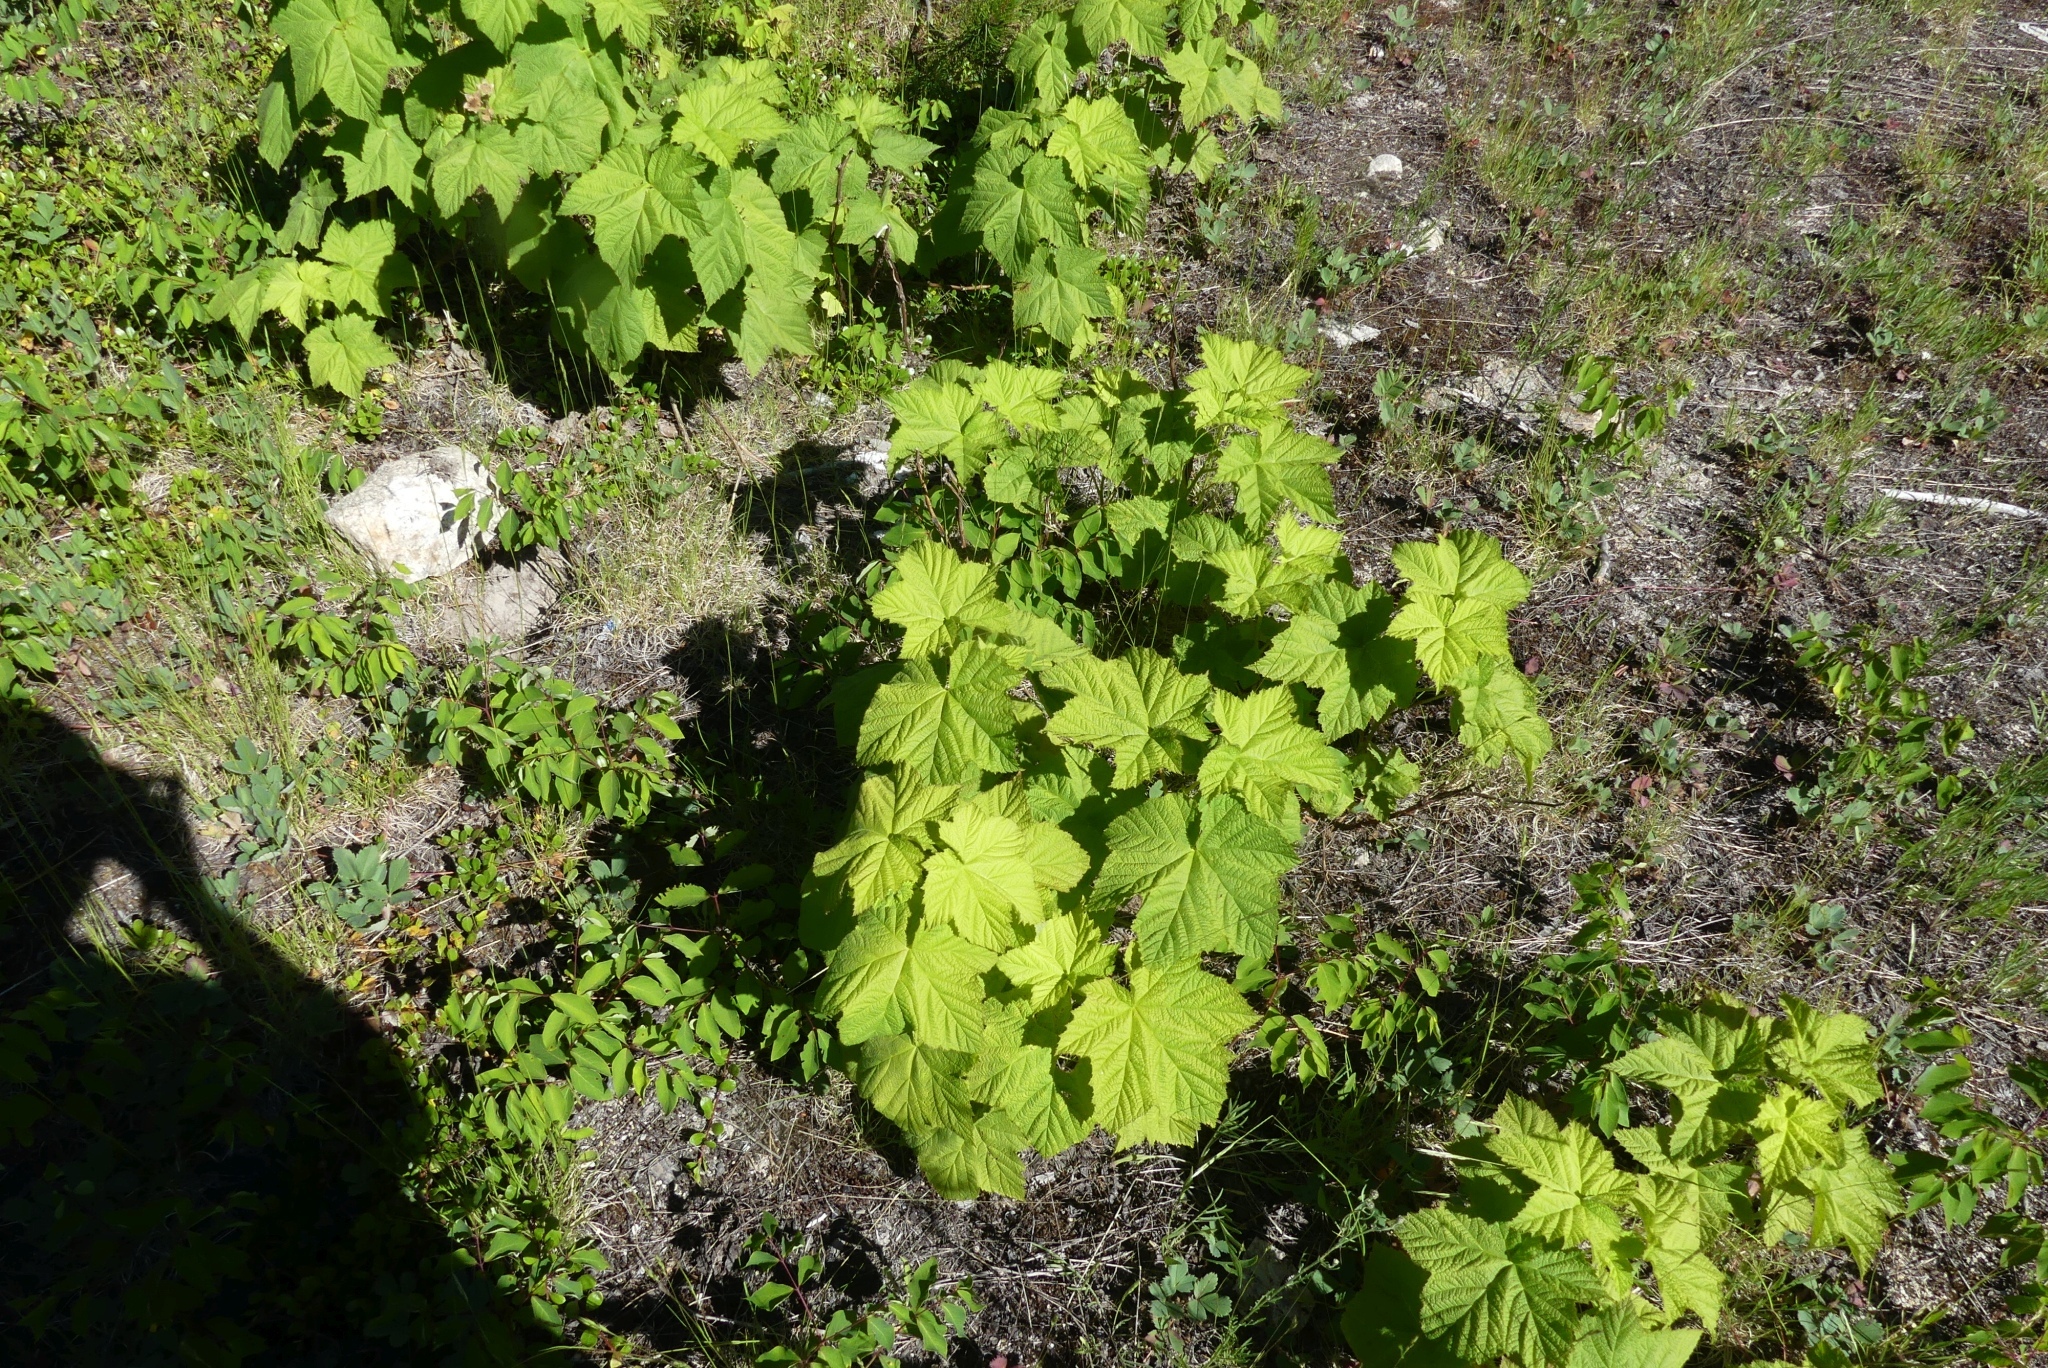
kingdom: Plantae
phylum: Tracheophyta
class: Magnoliopsida
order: Rosales
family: Rosaceae
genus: Rubus
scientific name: Rubus parviflorus
